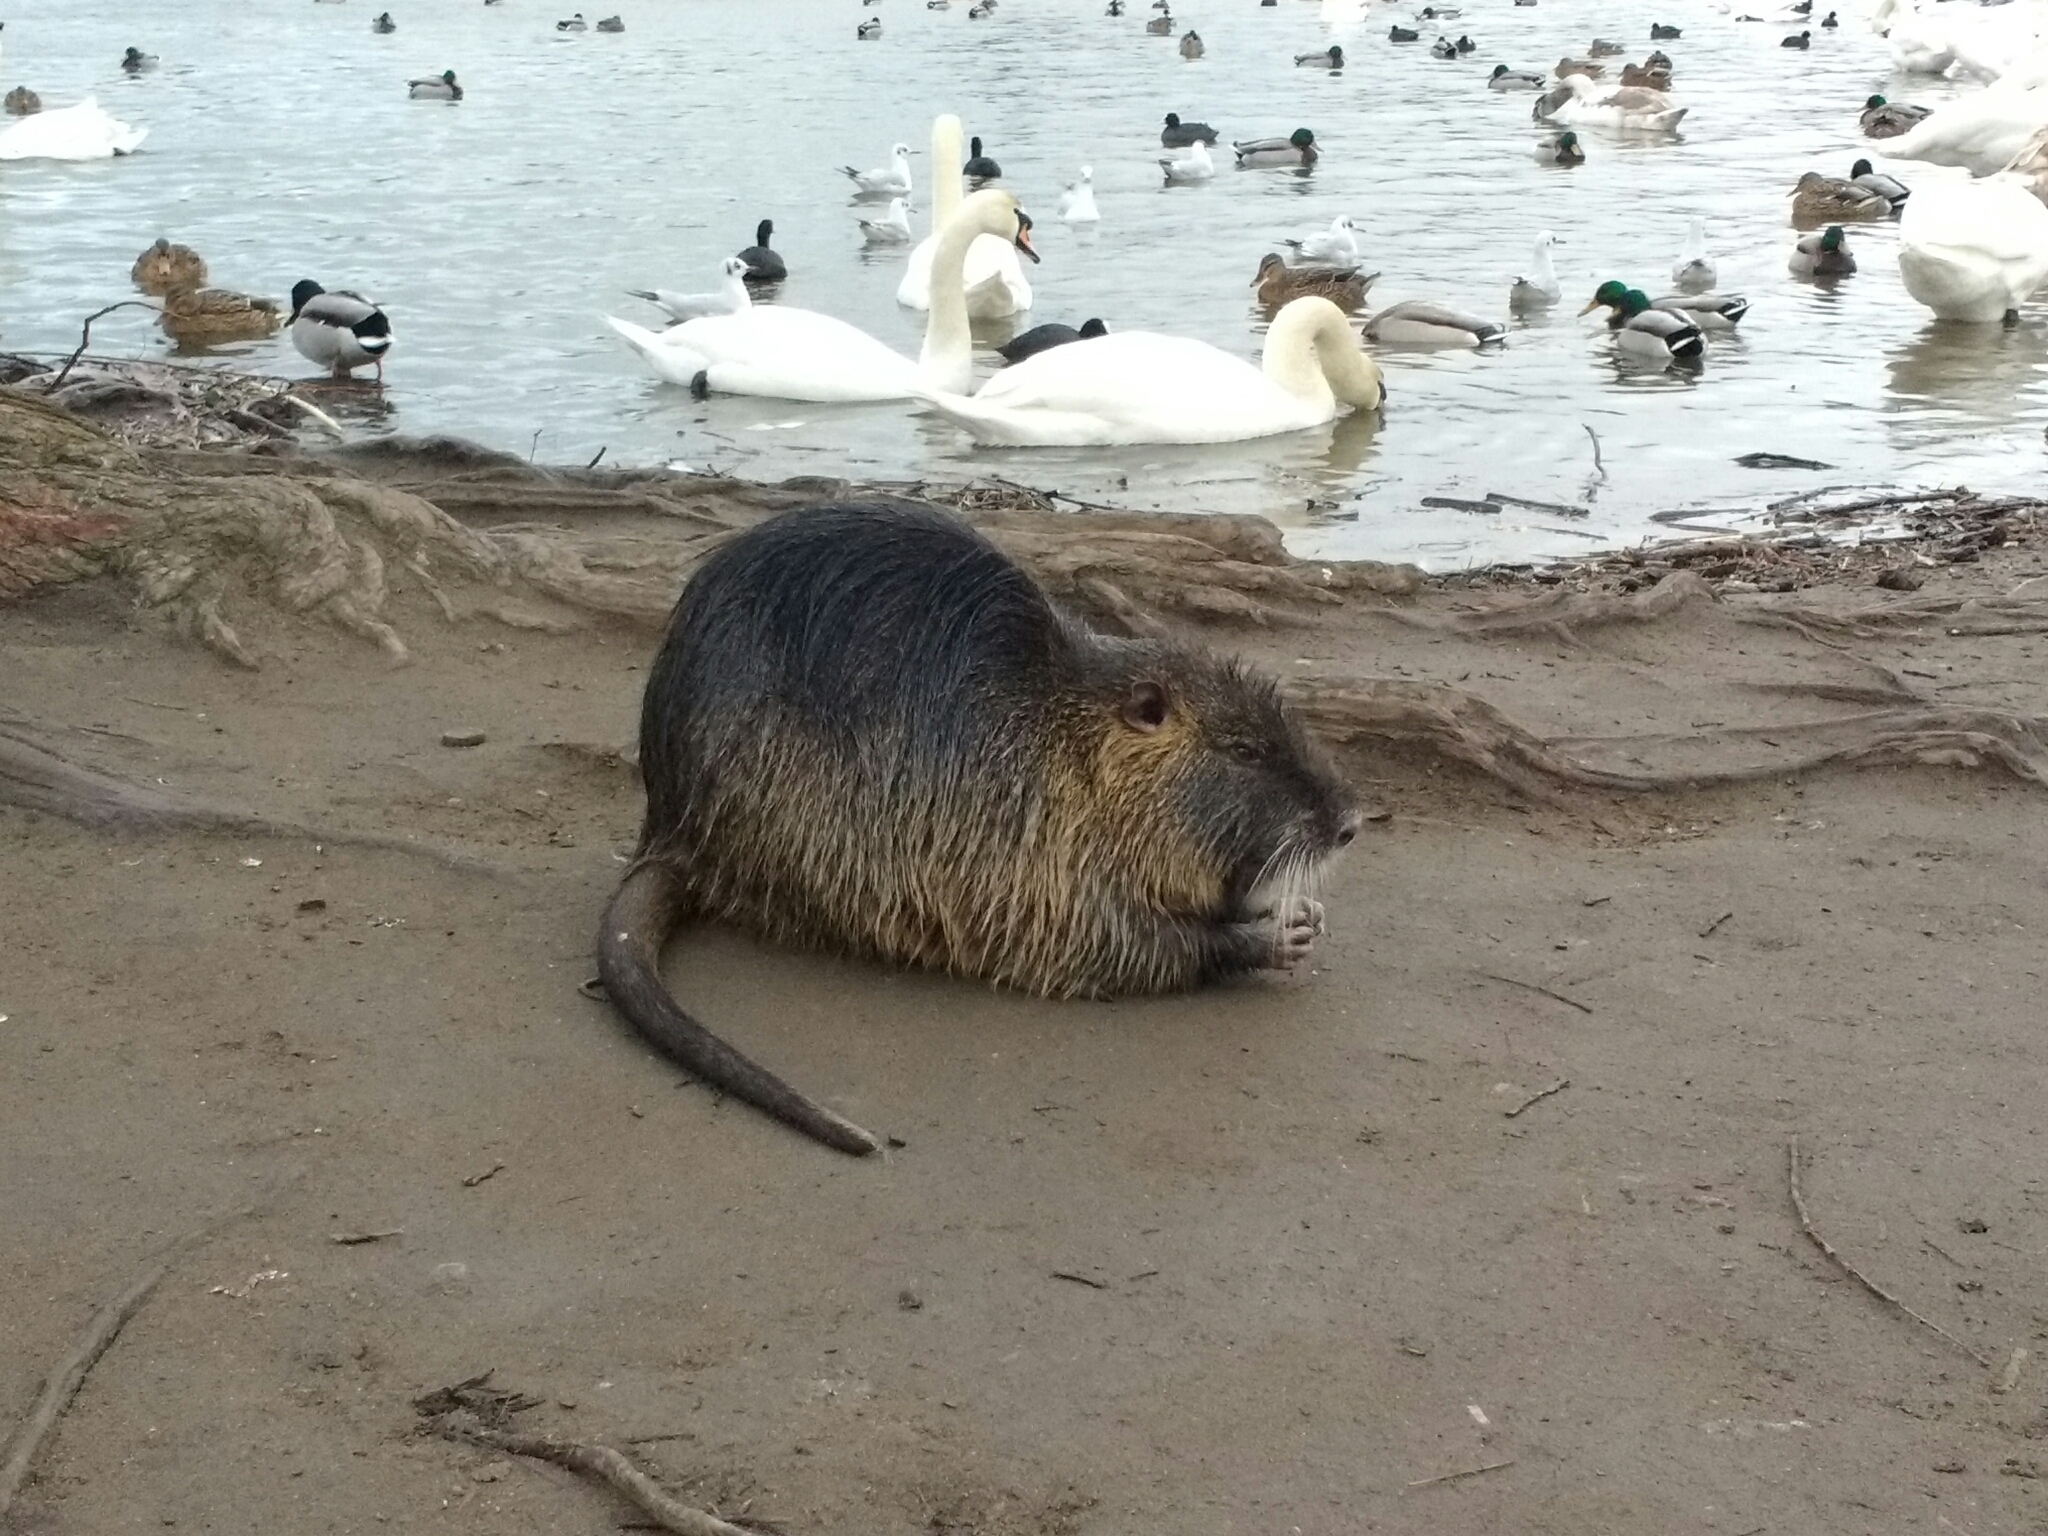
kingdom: Animalia
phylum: Chordata
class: Mammalia
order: Rodentia
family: Myocastoridae
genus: Myocastor
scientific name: Myocastor coypus
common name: Coypu
